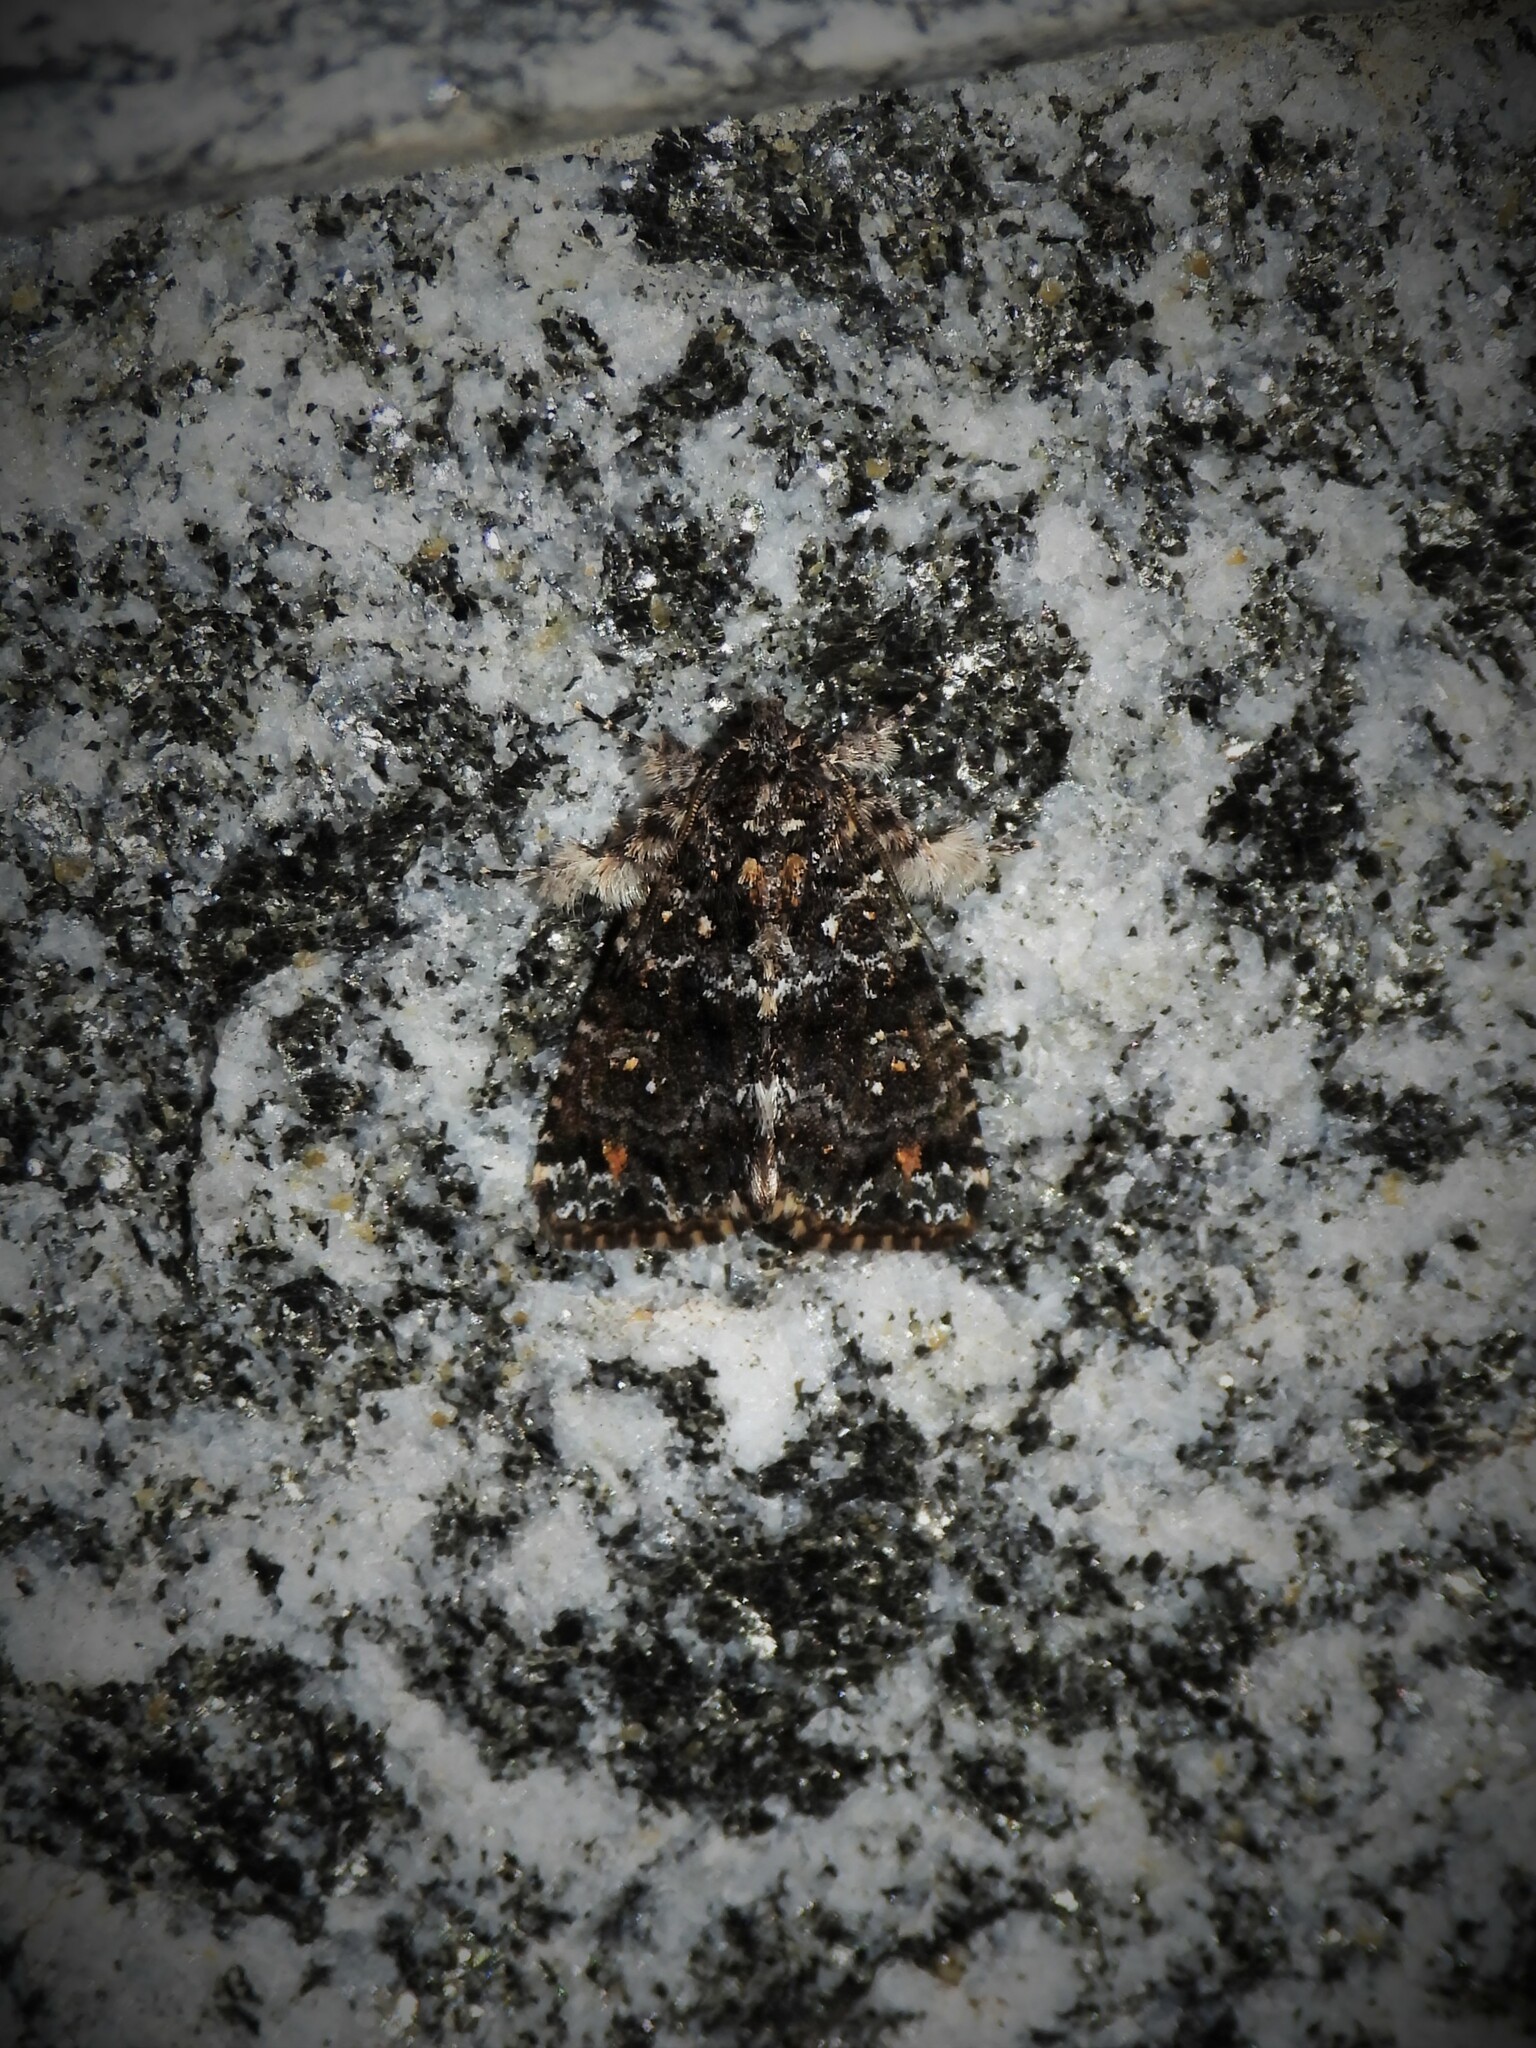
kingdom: Animalia
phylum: Arthropoda
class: Insecta
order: Lepidoptera
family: Noctuidae
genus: Callopistria
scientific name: Callopistria latreillei
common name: Latreille's latin
